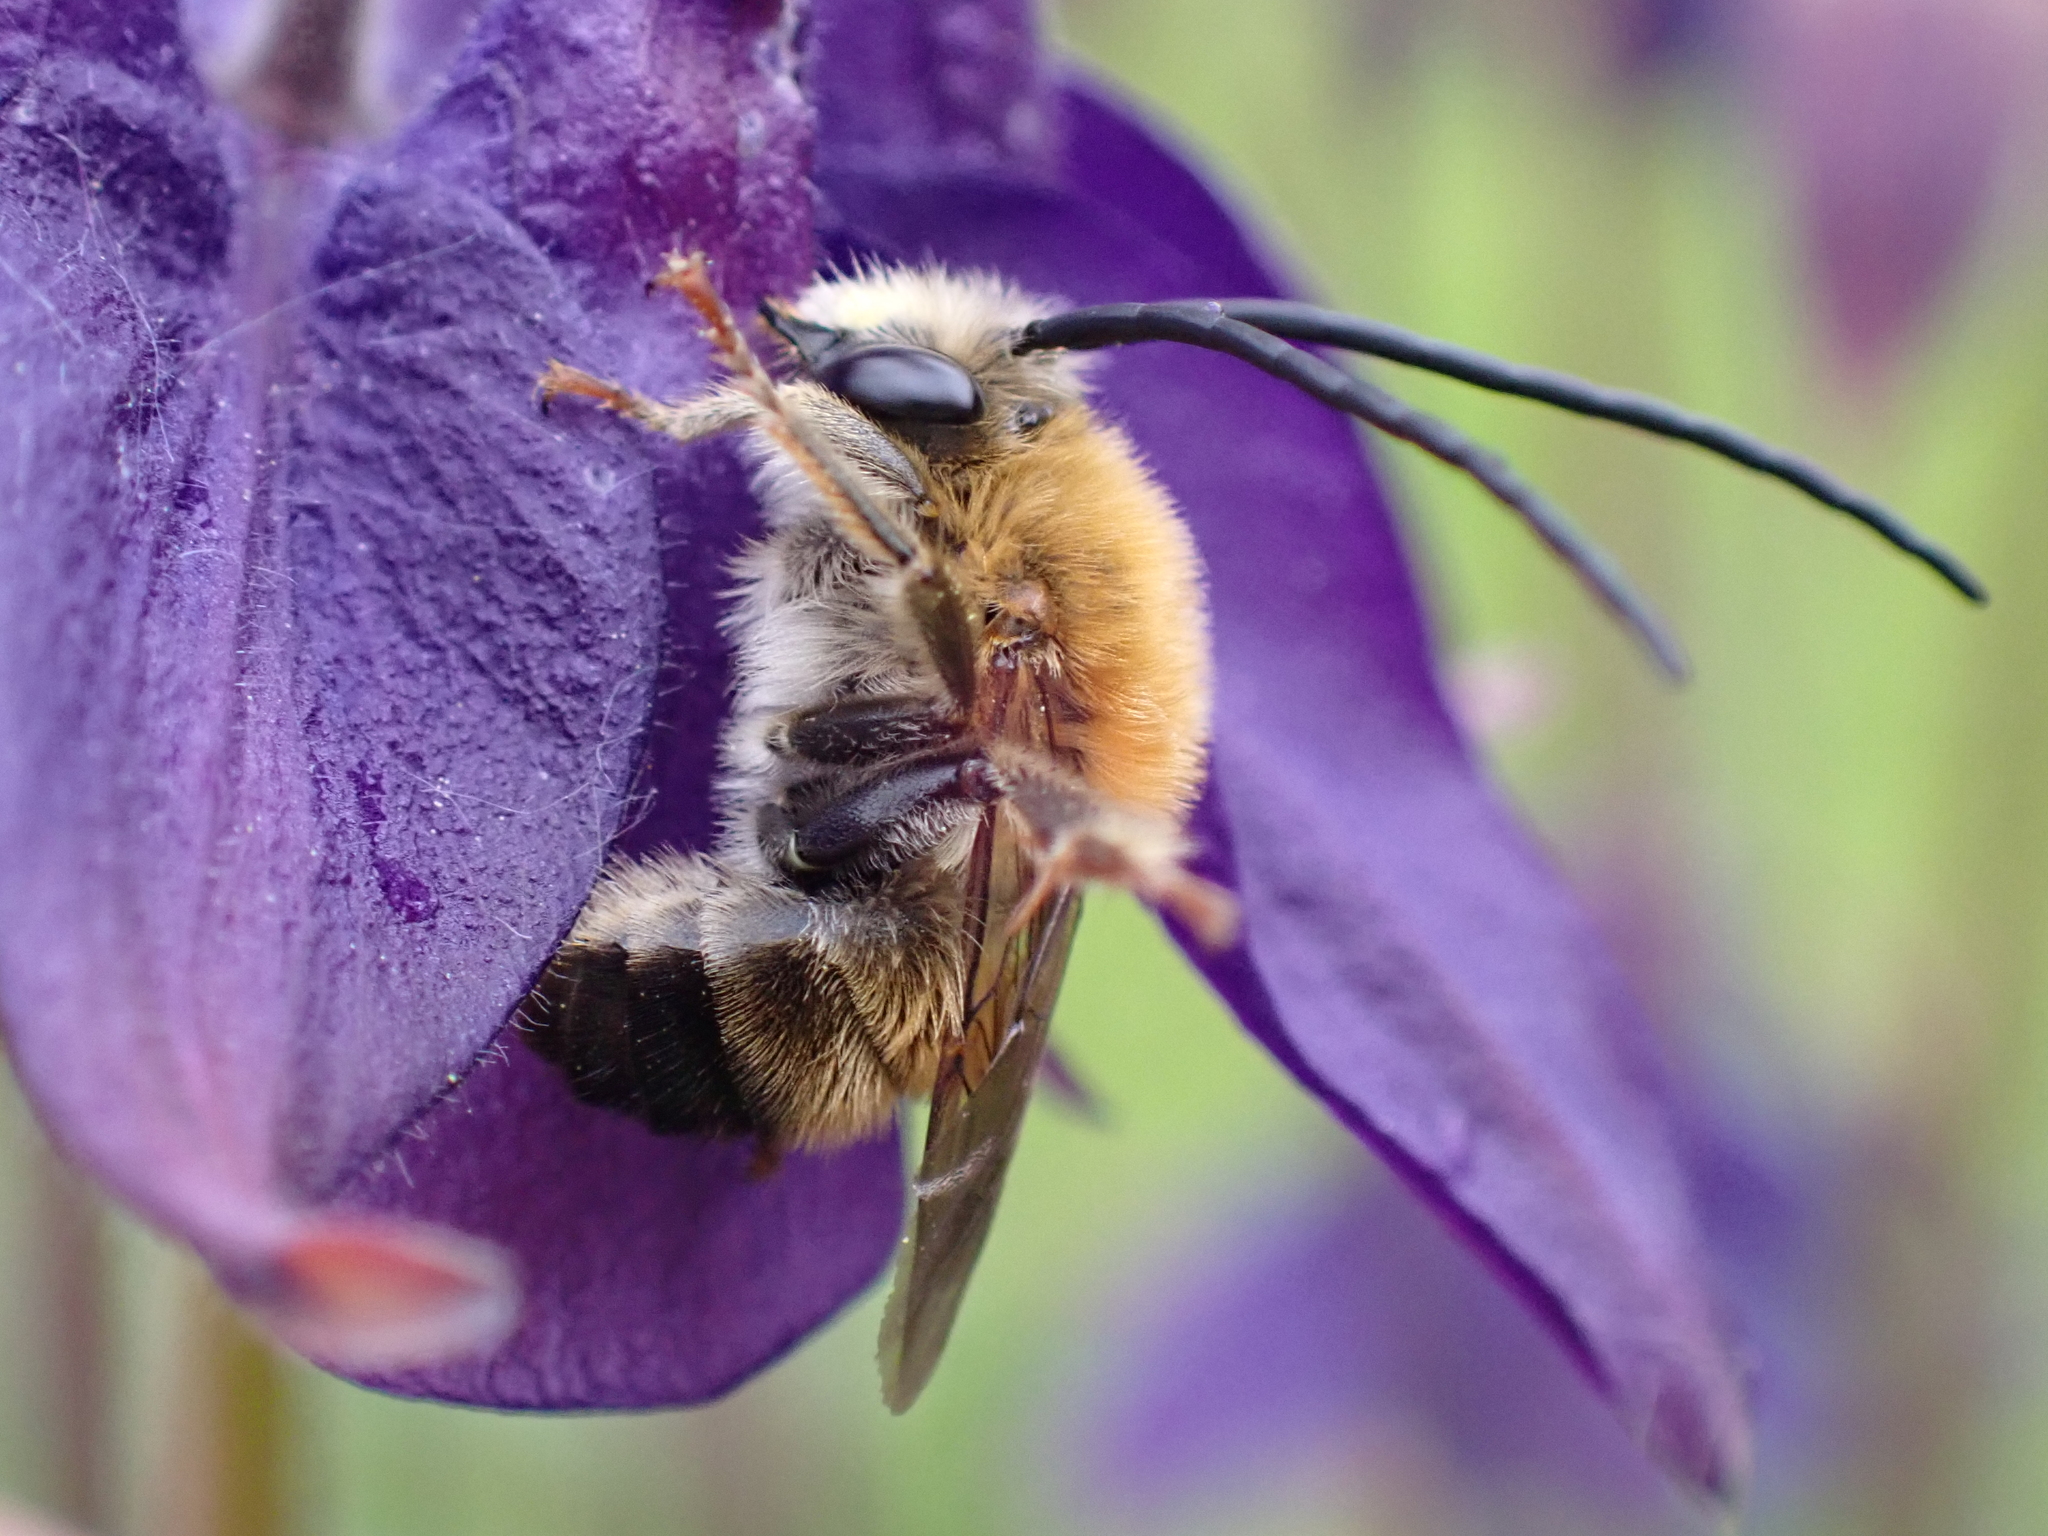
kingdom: Animalia
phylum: Arthropoda
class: Insecta
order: Hymenoptera
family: Apidae
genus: Eucera
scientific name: Eucera longicornis
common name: Long-horned bee
